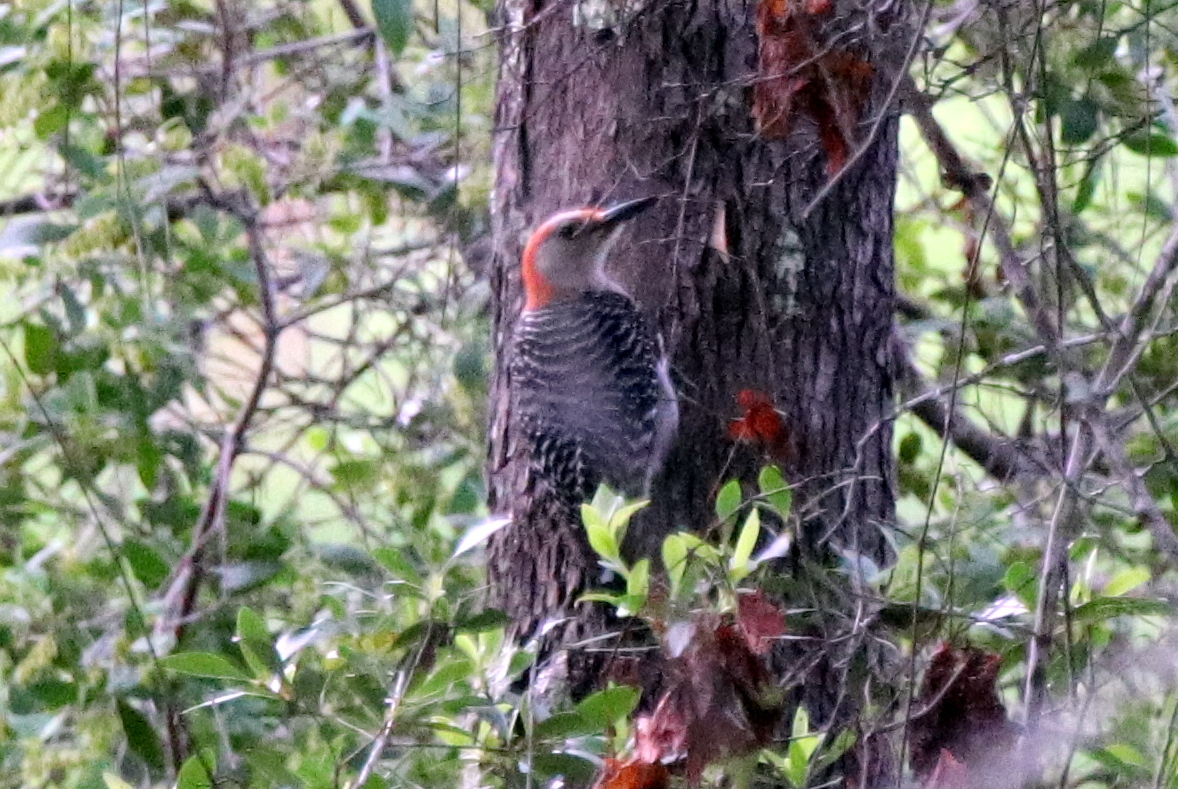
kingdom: Animalia
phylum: Chordata
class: Aves
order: Piciformes
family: Picidae
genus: Melanerpes
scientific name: Melanerpes carolinus
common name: Red-bellied woodpecker
